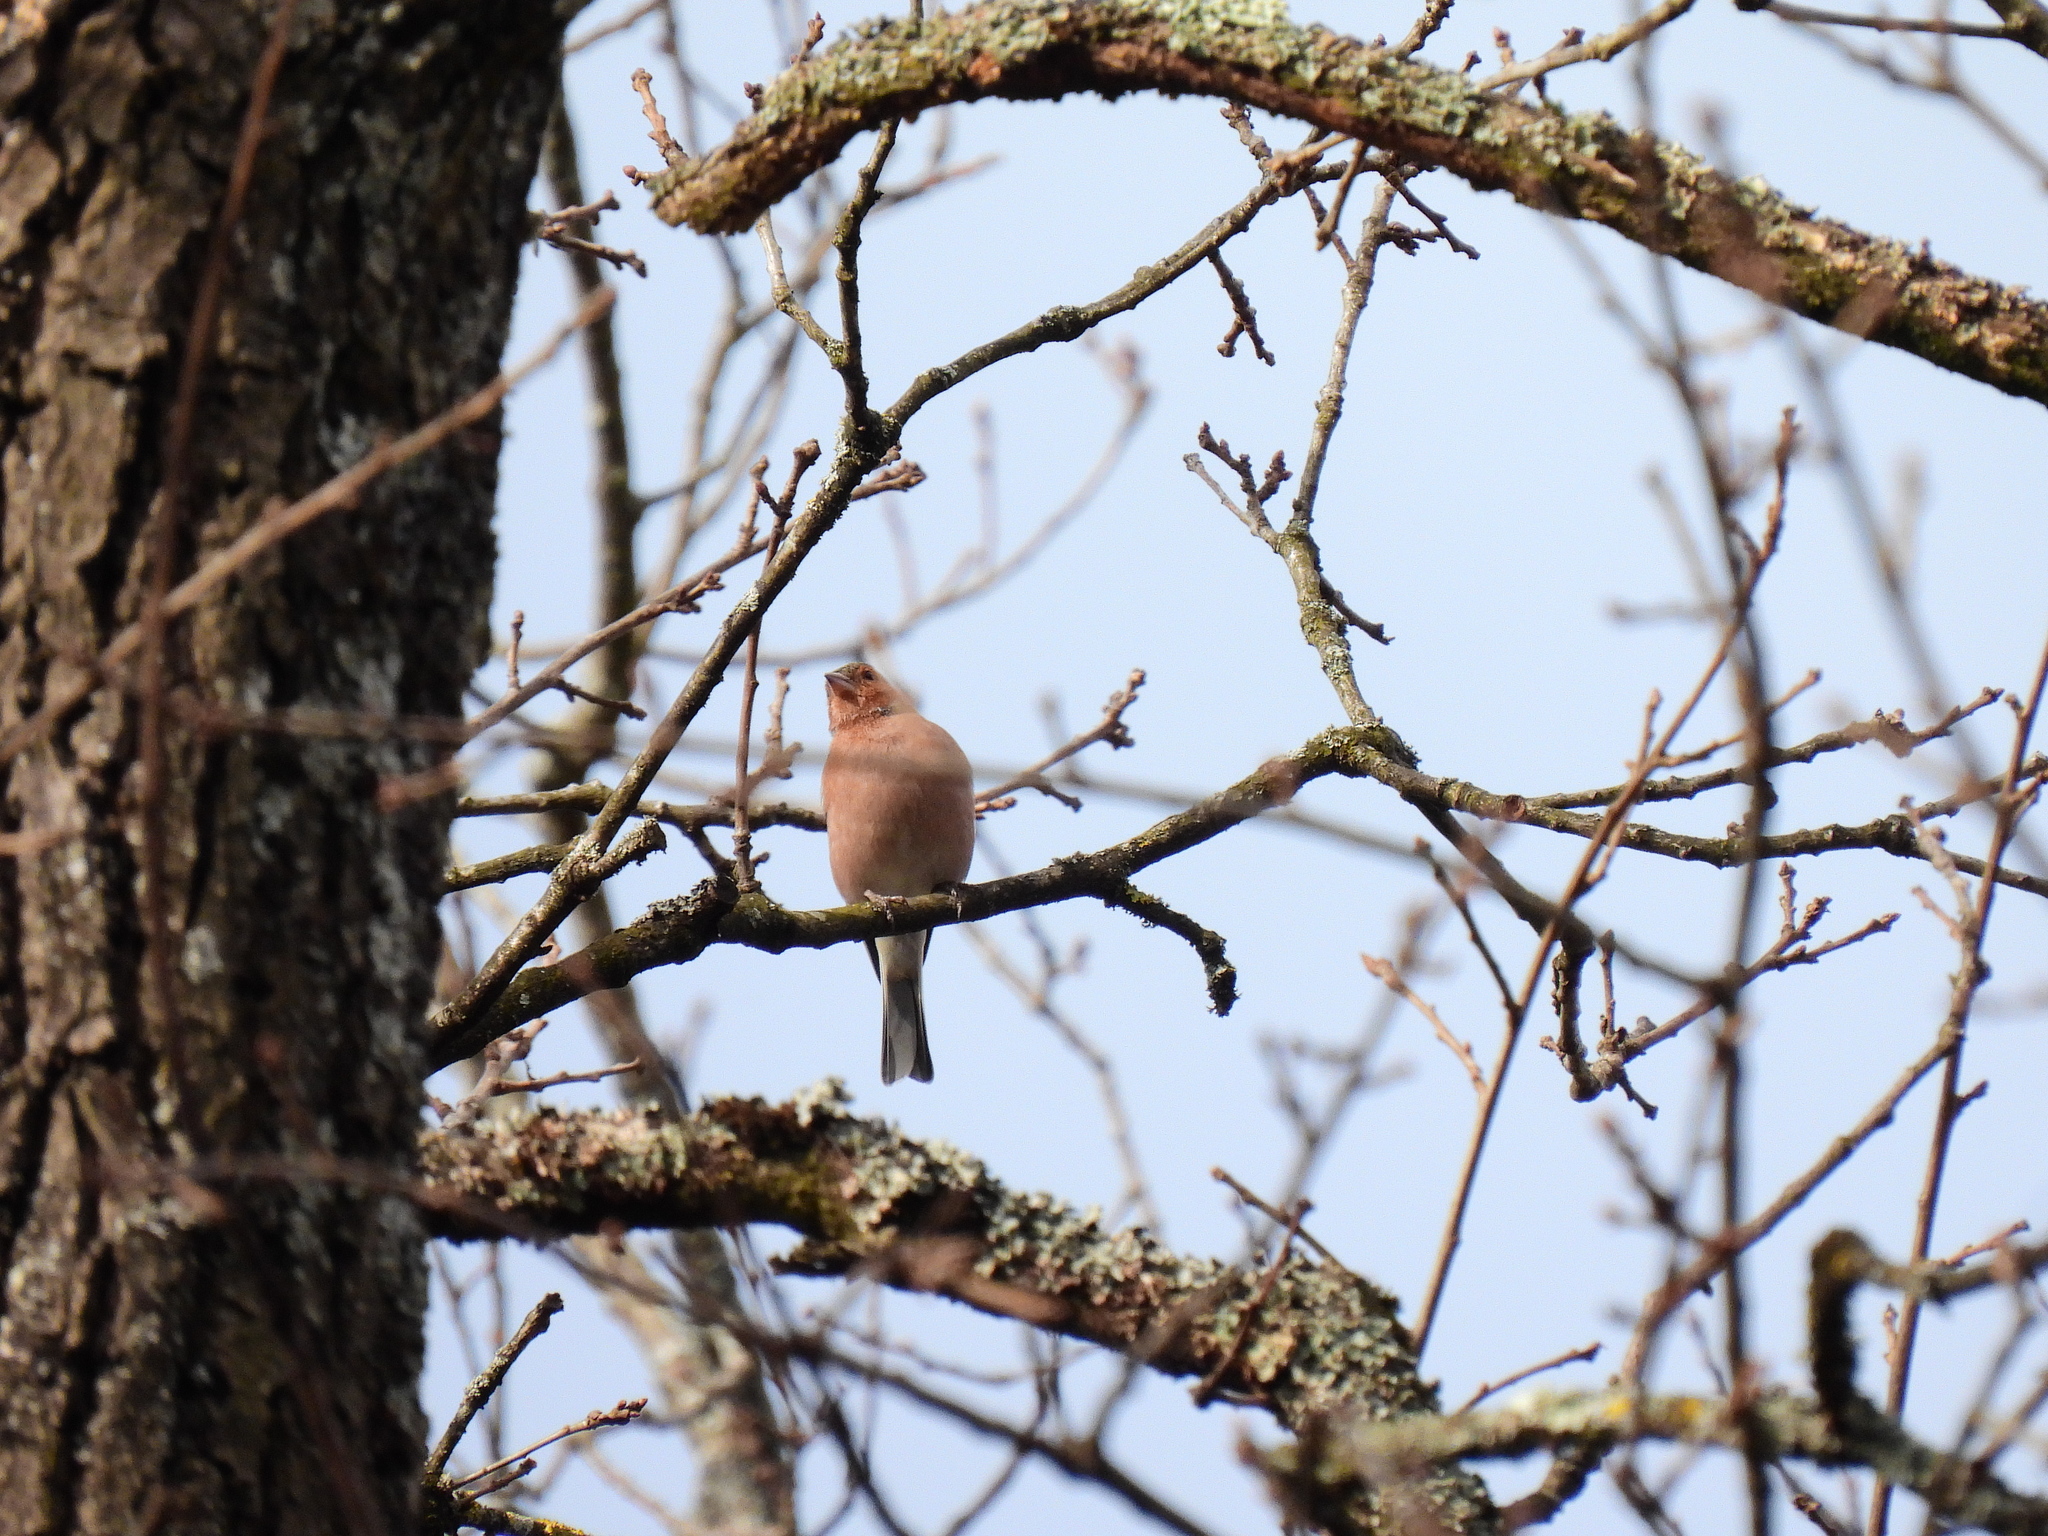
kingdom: Animalia
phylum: Chordata
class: Aves
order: Passeriformes
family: Fringillidae
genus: Fringilla
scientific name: Fringilla coelebs
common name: Common chaffinch
